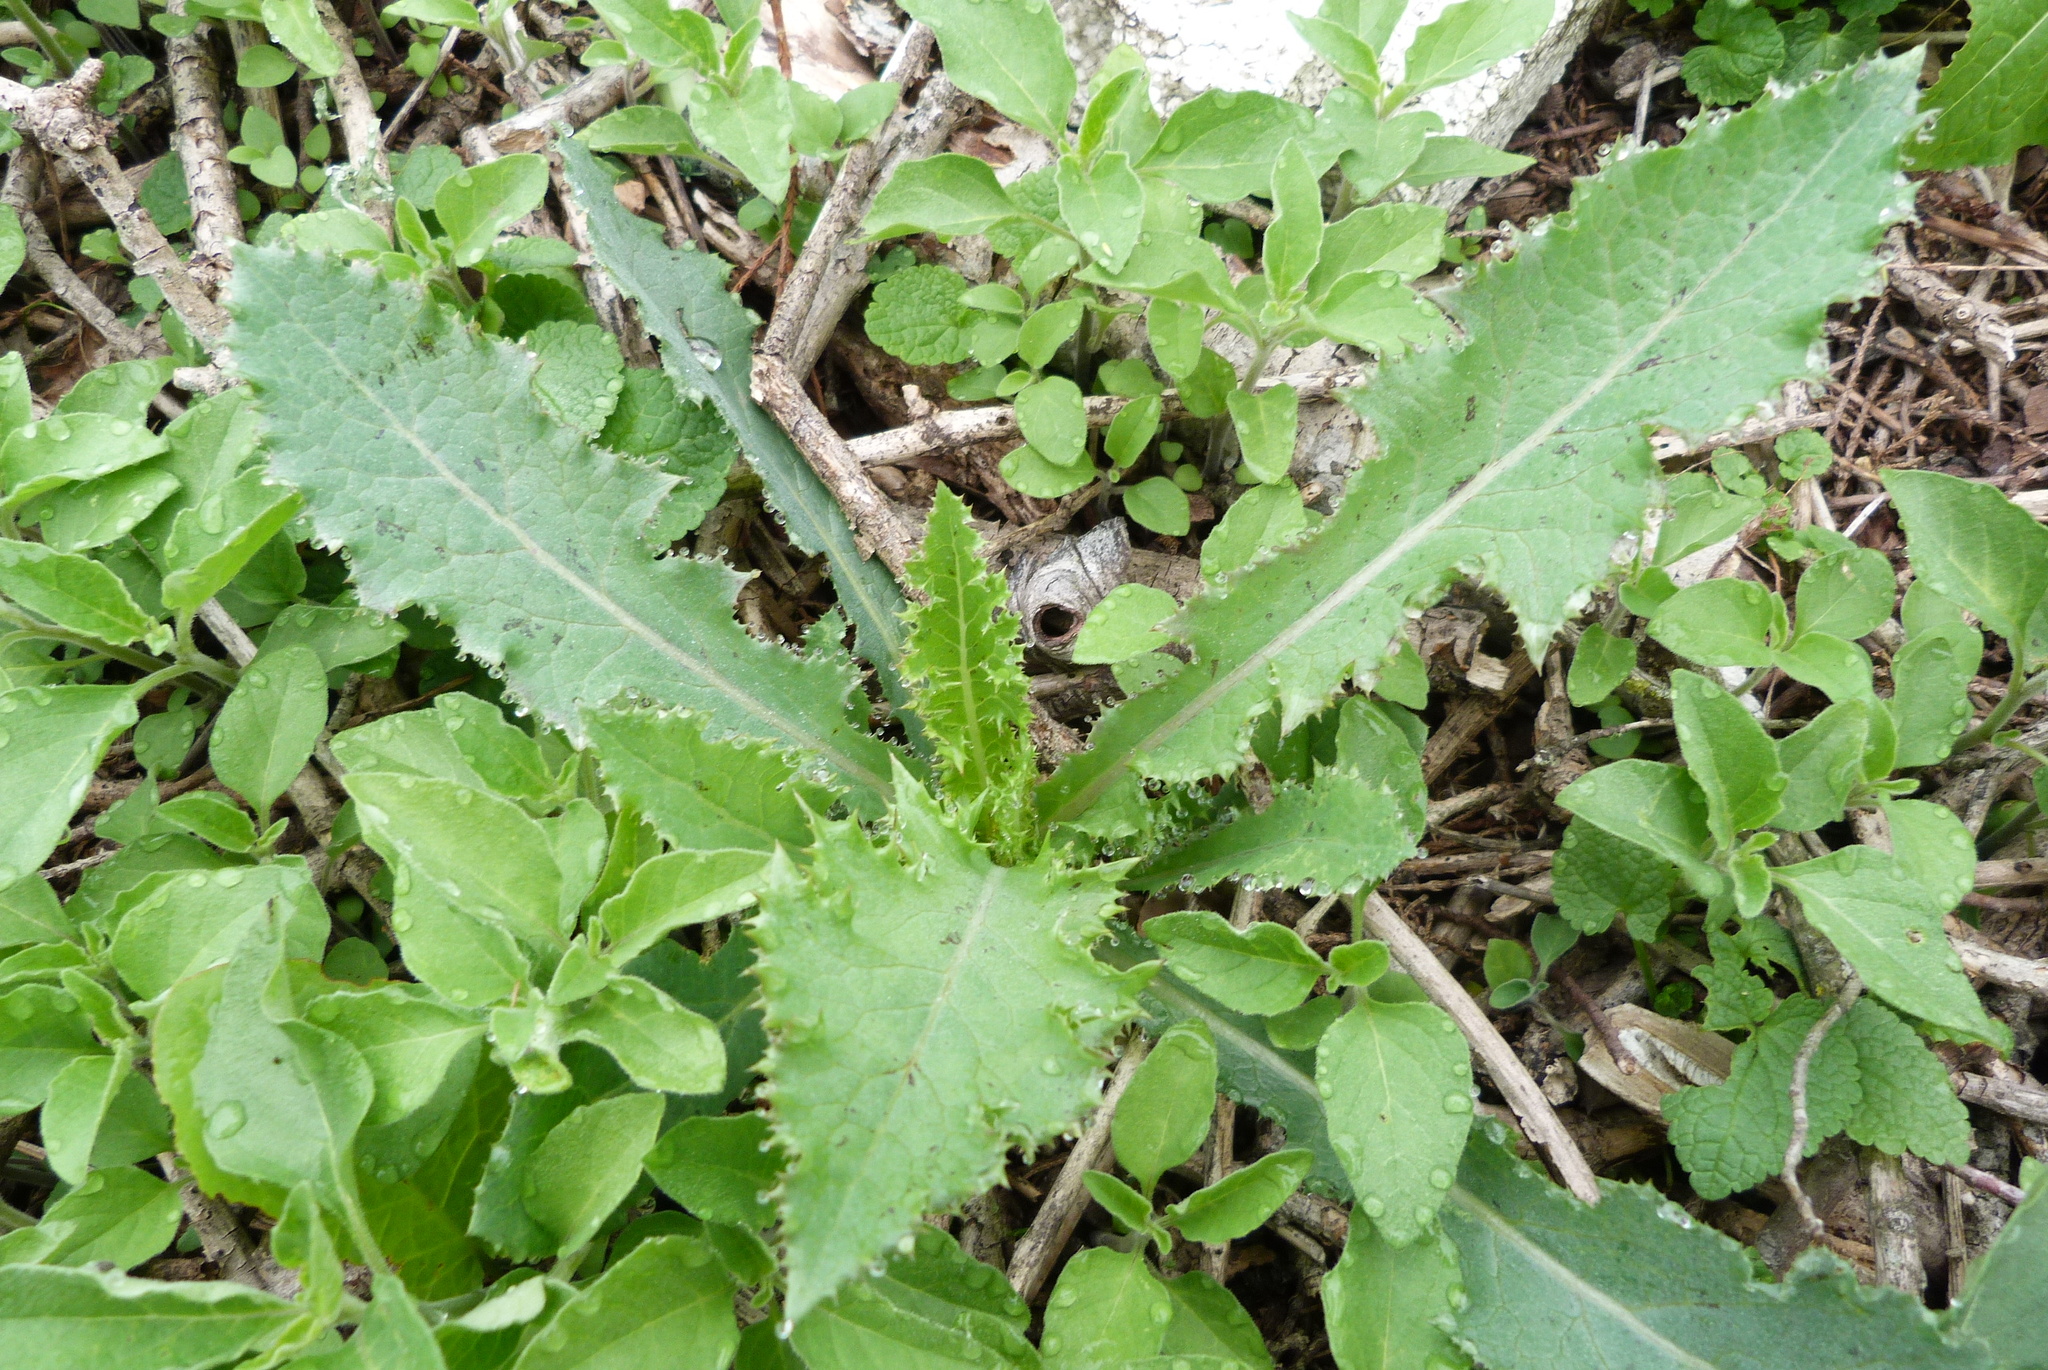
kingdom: Plantae
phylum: Tracheophyta
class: Magnoliopsida
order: Asterales
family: Asteraceae
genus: Sonchus
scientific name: Sonchus asper
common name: Prickly sow-thistle
